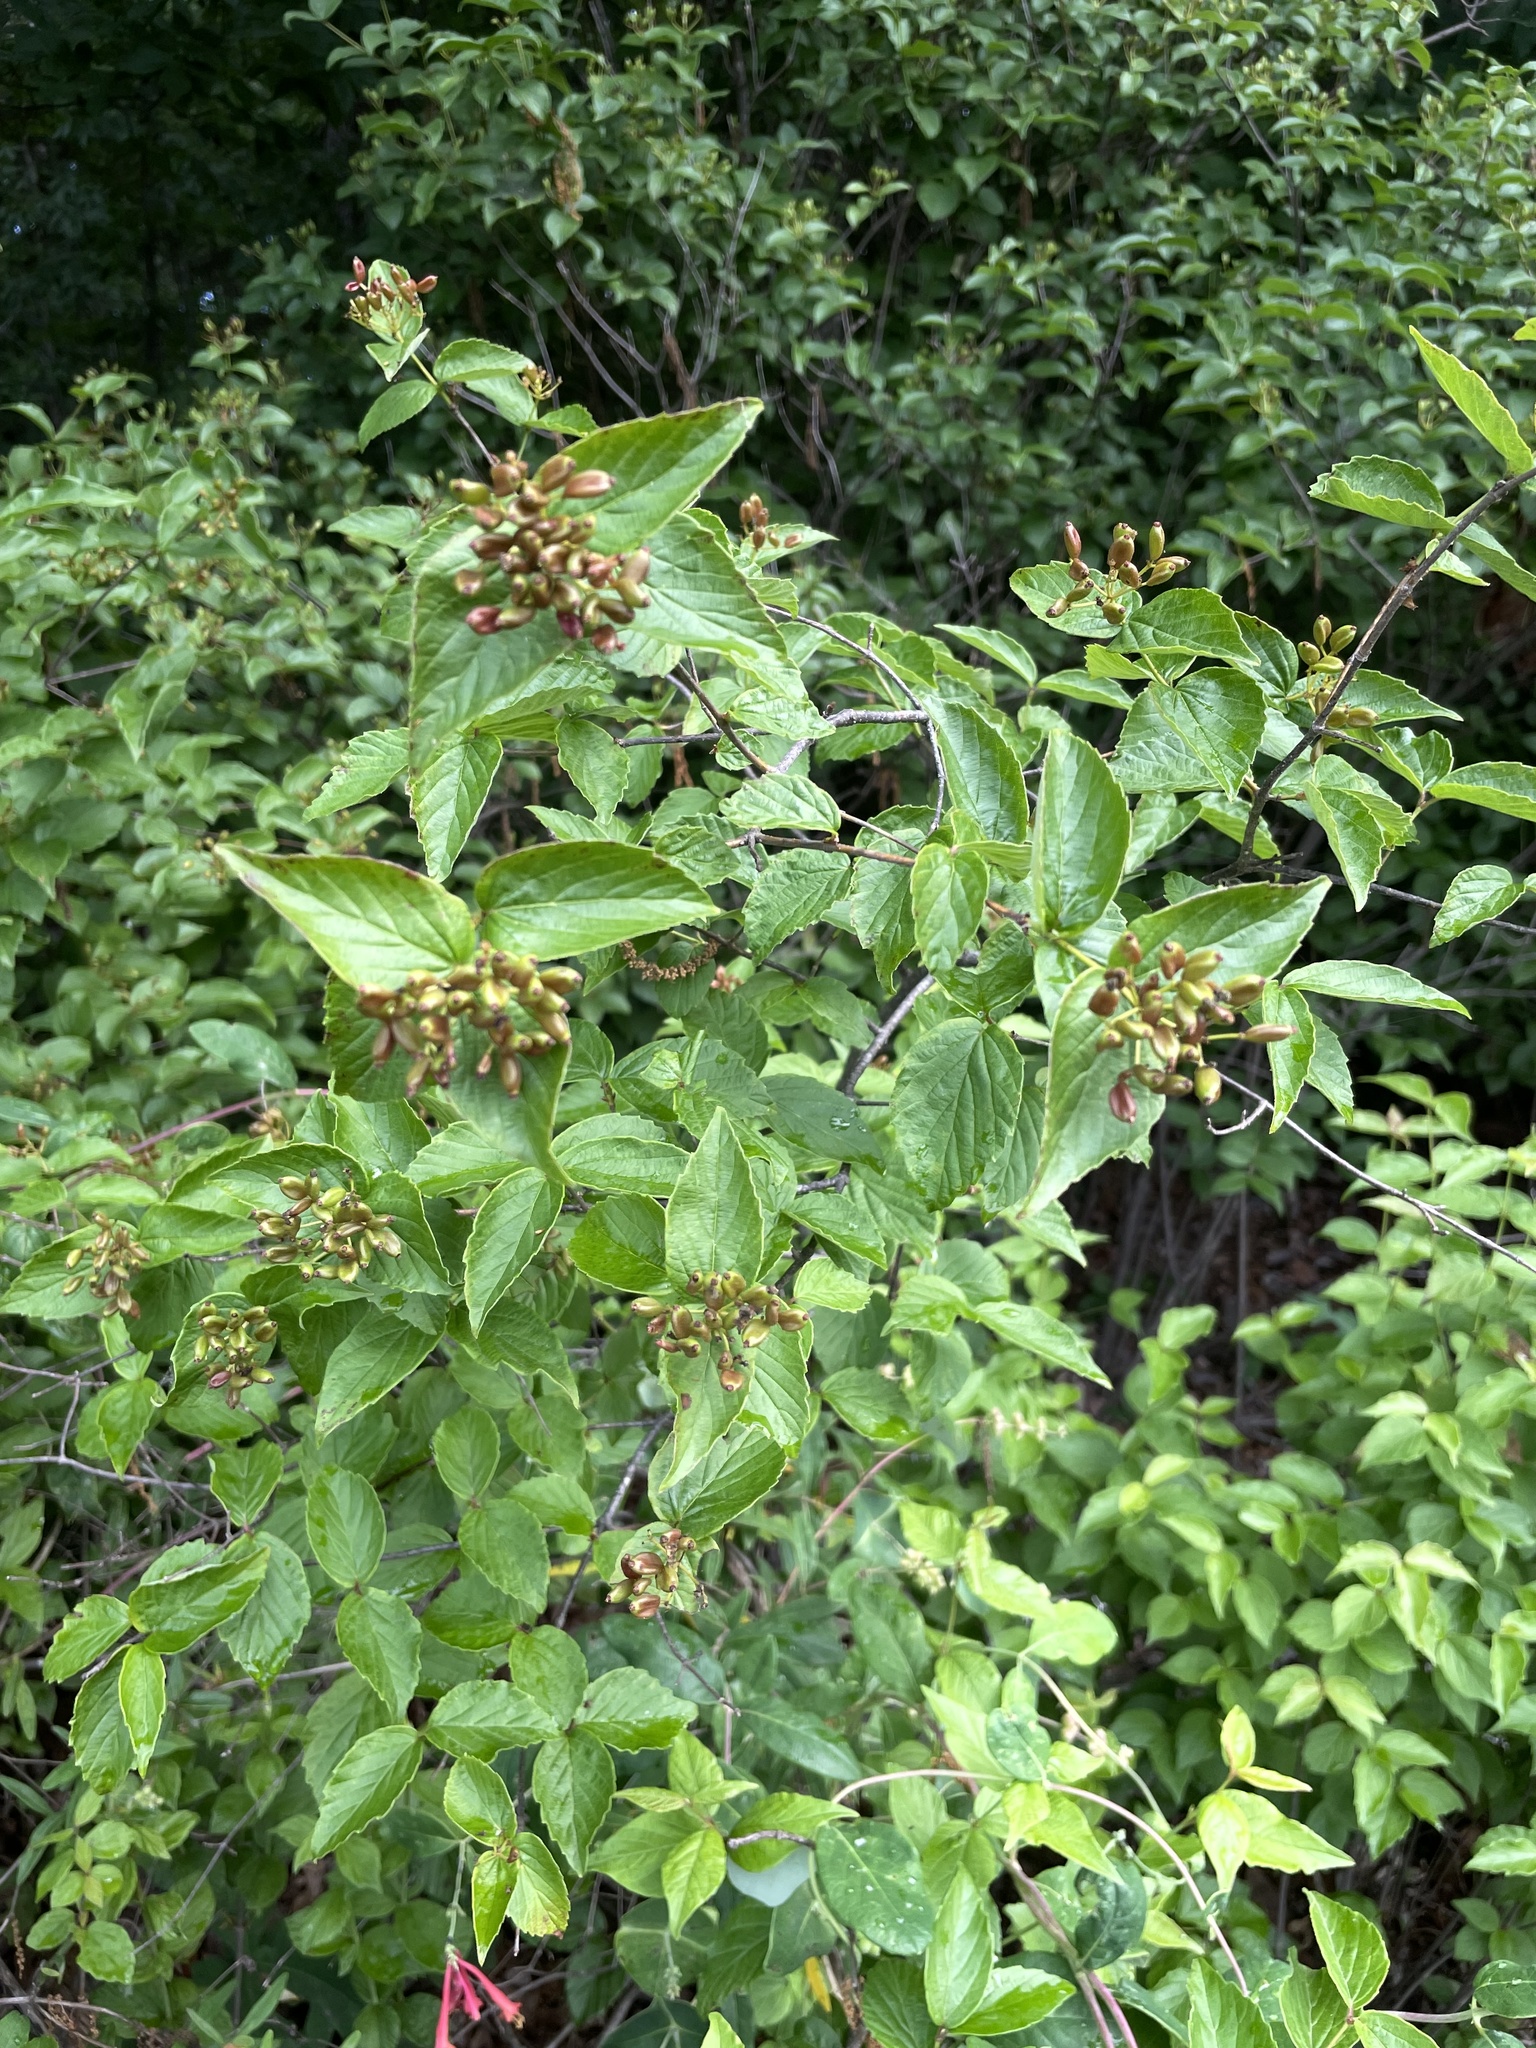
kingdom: Plantae
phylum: Tracheophyta
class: Magnoliopsida
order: Dipsacales
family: Viburnaceae
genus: Viburnum
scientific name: Viburnum rafinesqueanum
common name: Downy arrow-wood
